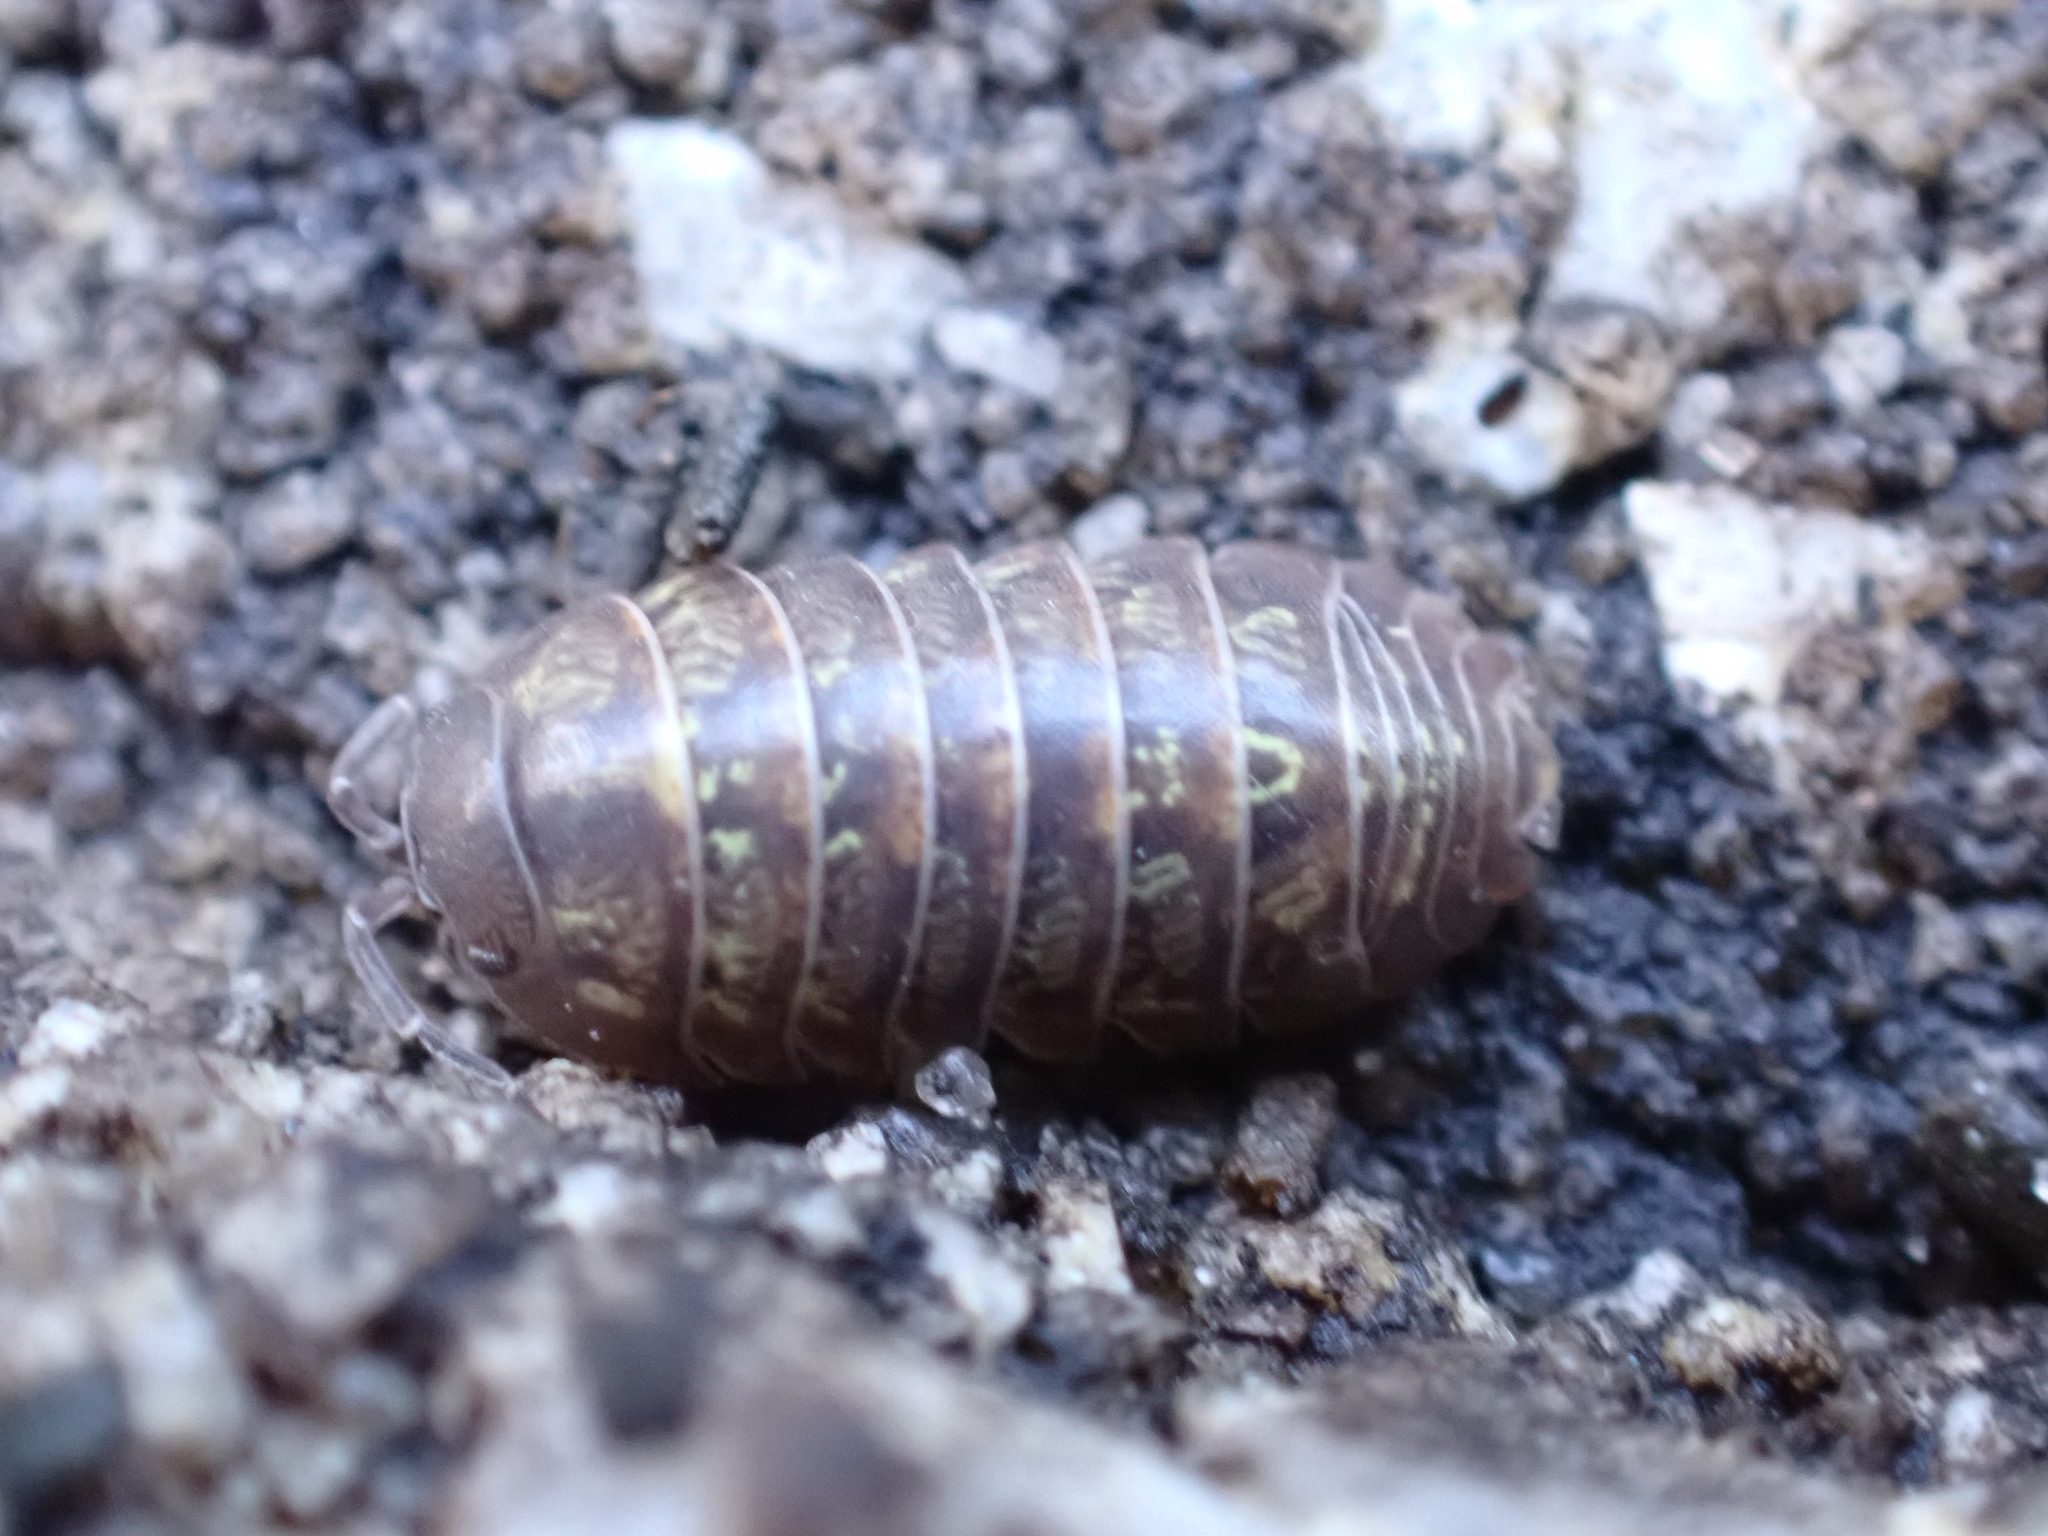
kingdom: Animalia
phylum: Arthropoda
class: Malacostraca
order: Isopoda
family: Armadillidiidae
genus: Armadillidium
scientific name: Armadillidium vulgare
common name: Common pill woodlouse
